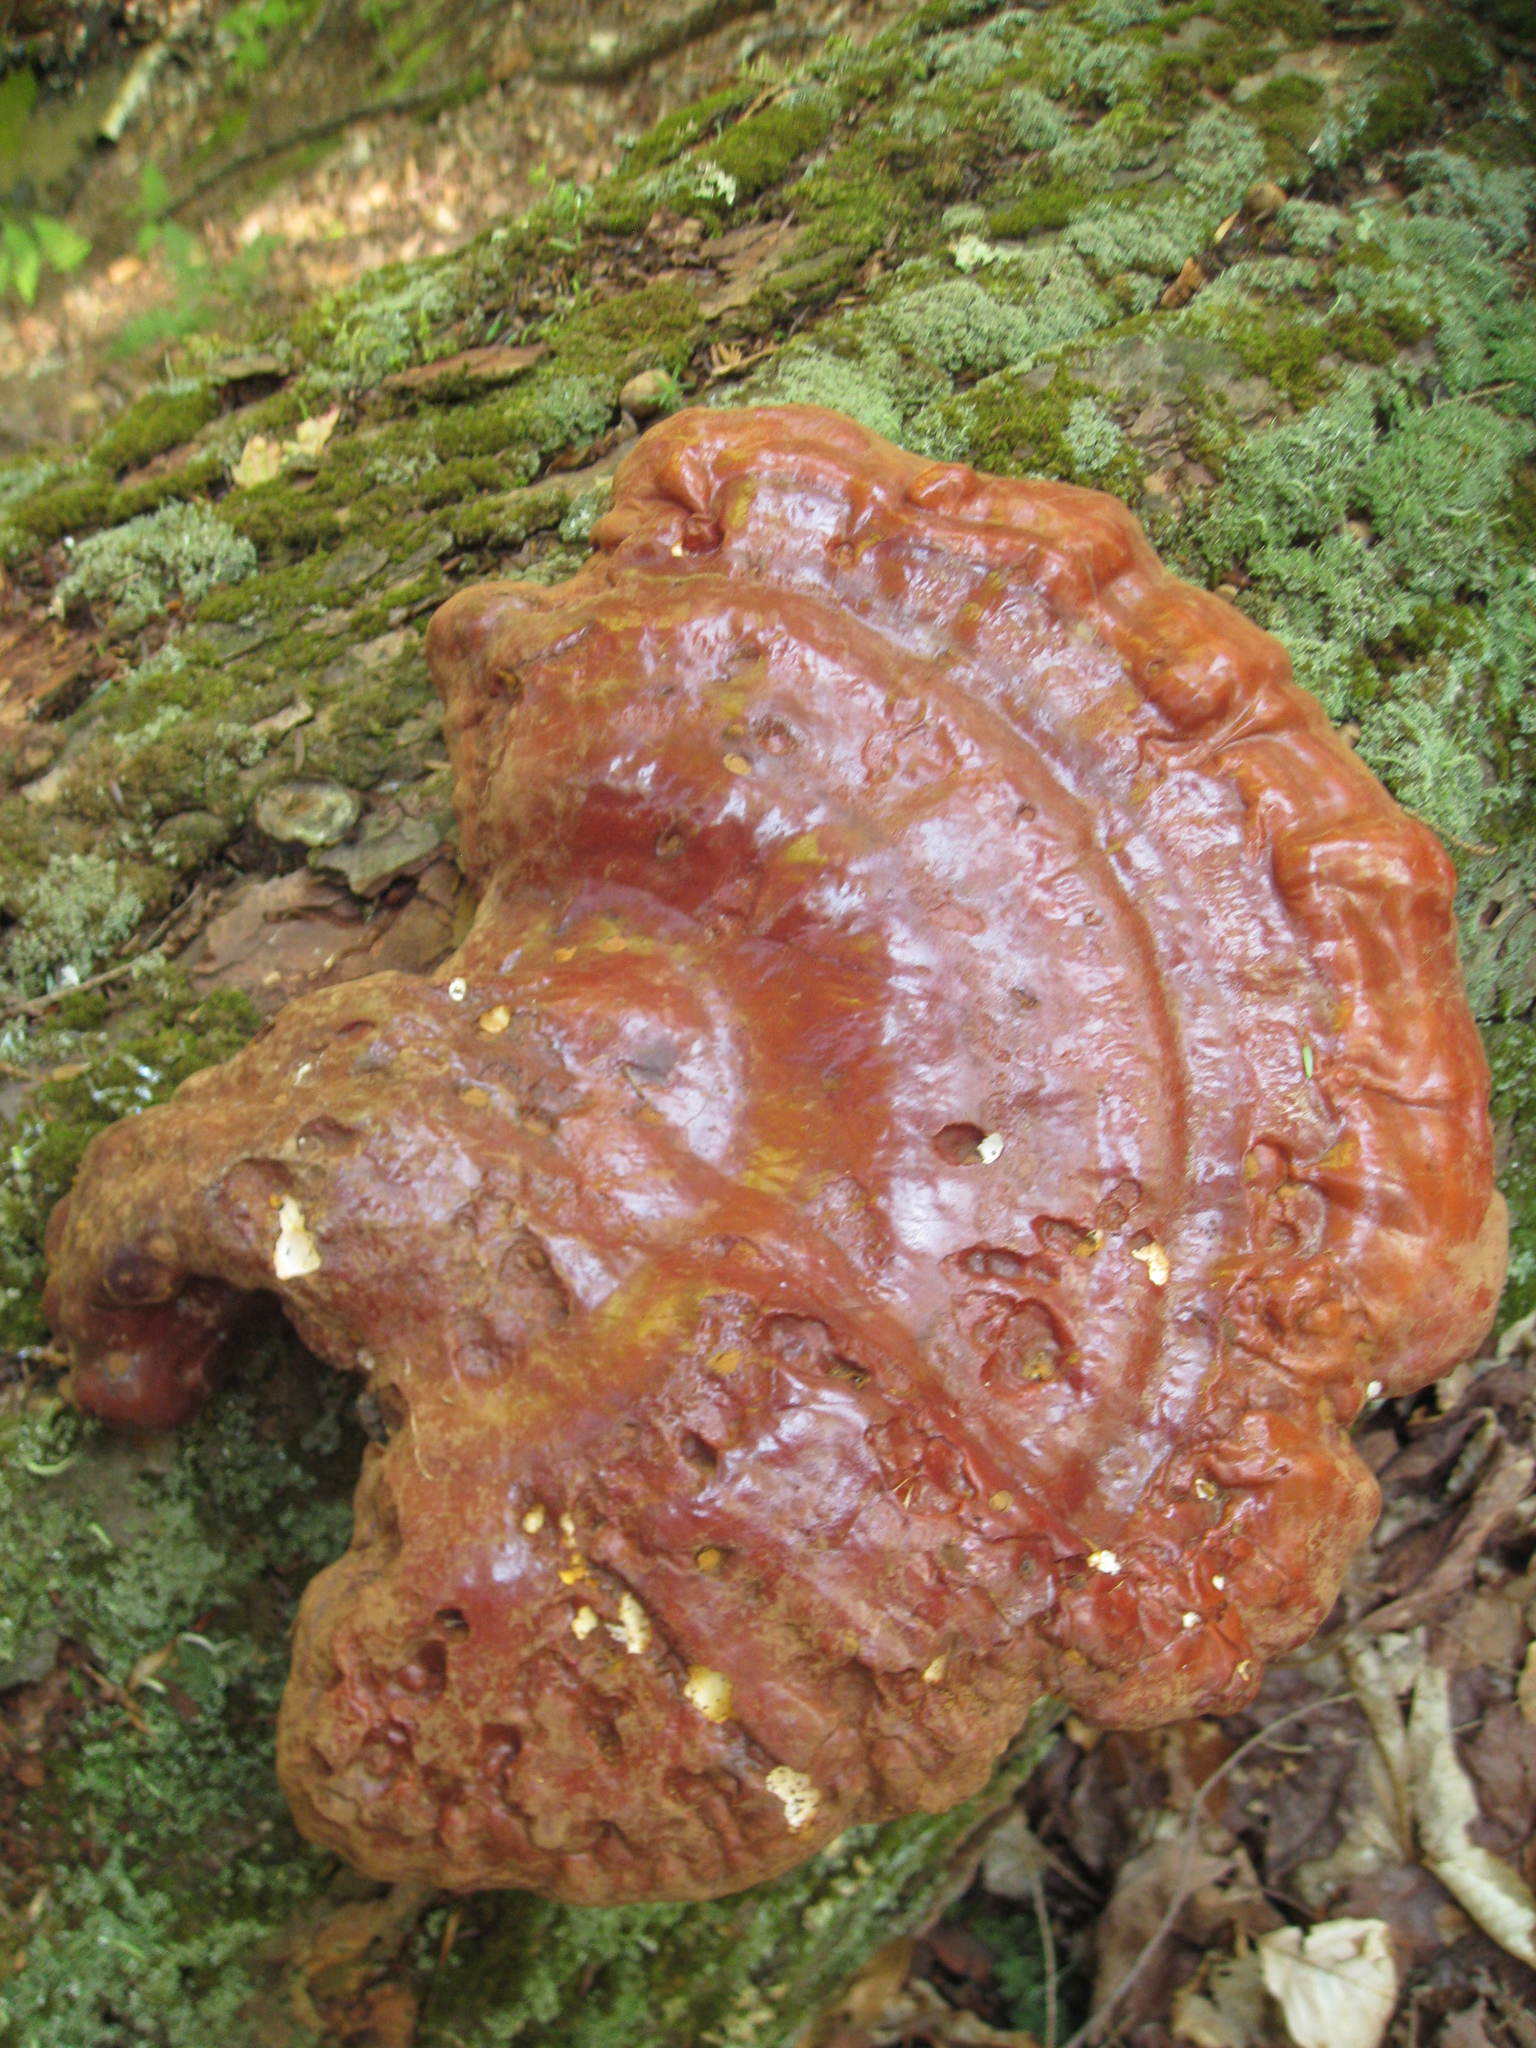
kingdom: Fungi
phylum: Basidiomycota
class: Agaricomycetes
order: Polyporales
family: Polyporaceae
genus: Ganoderma
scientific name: Ganoderma tsugae
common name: Hemlock varnish shelf
